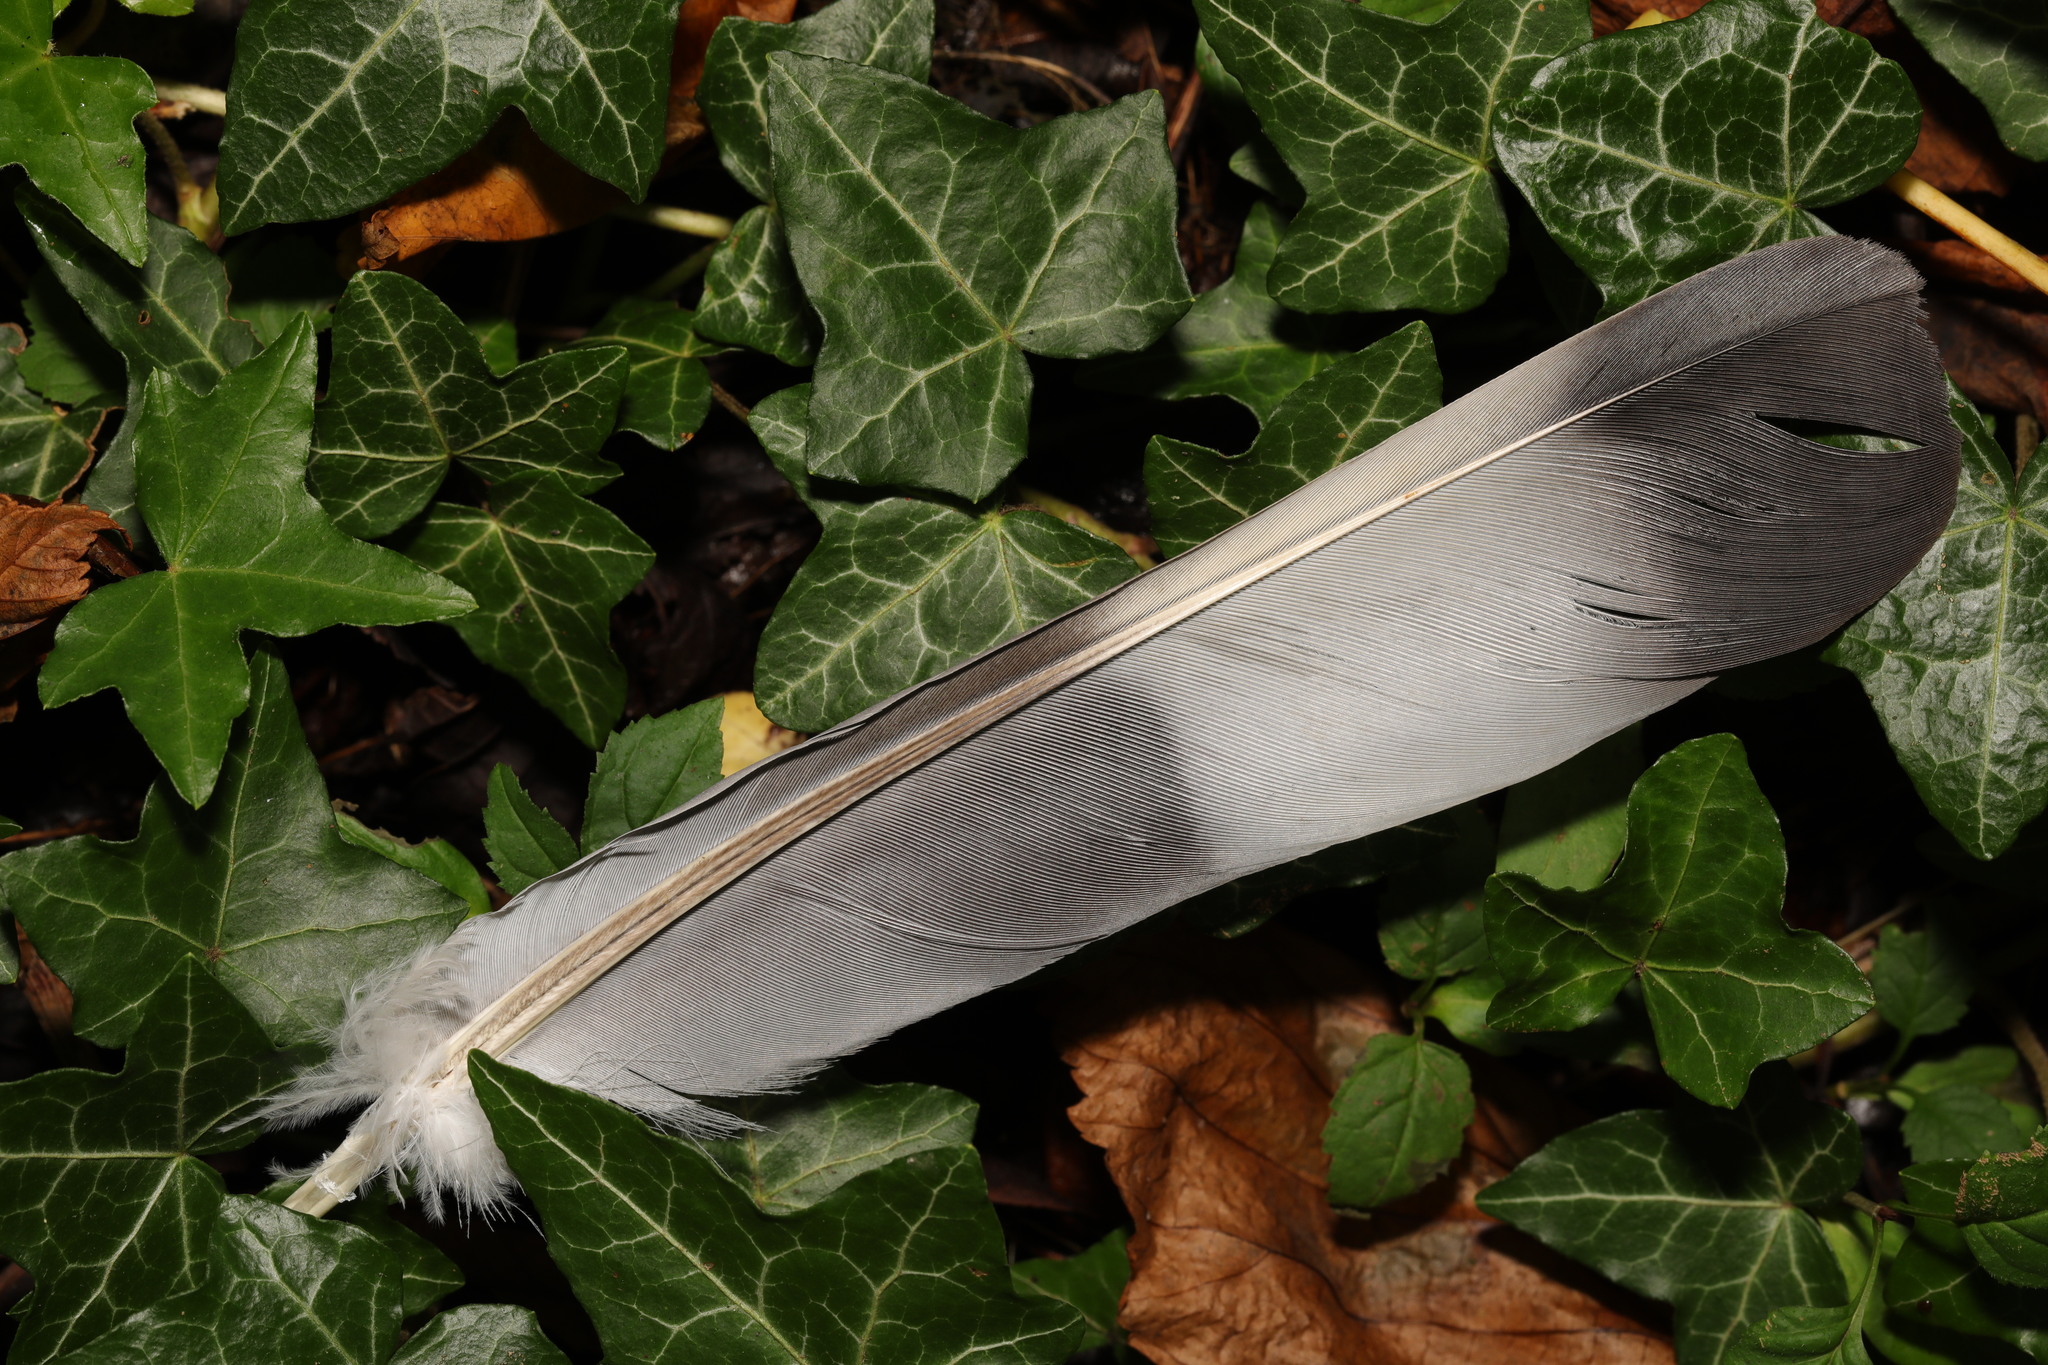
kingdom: Animalia
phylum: Chordata
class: Aves
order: Columbiformes
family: Columbidae
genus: Columba
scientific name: Columba palumbus
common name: Common wood pigeon
